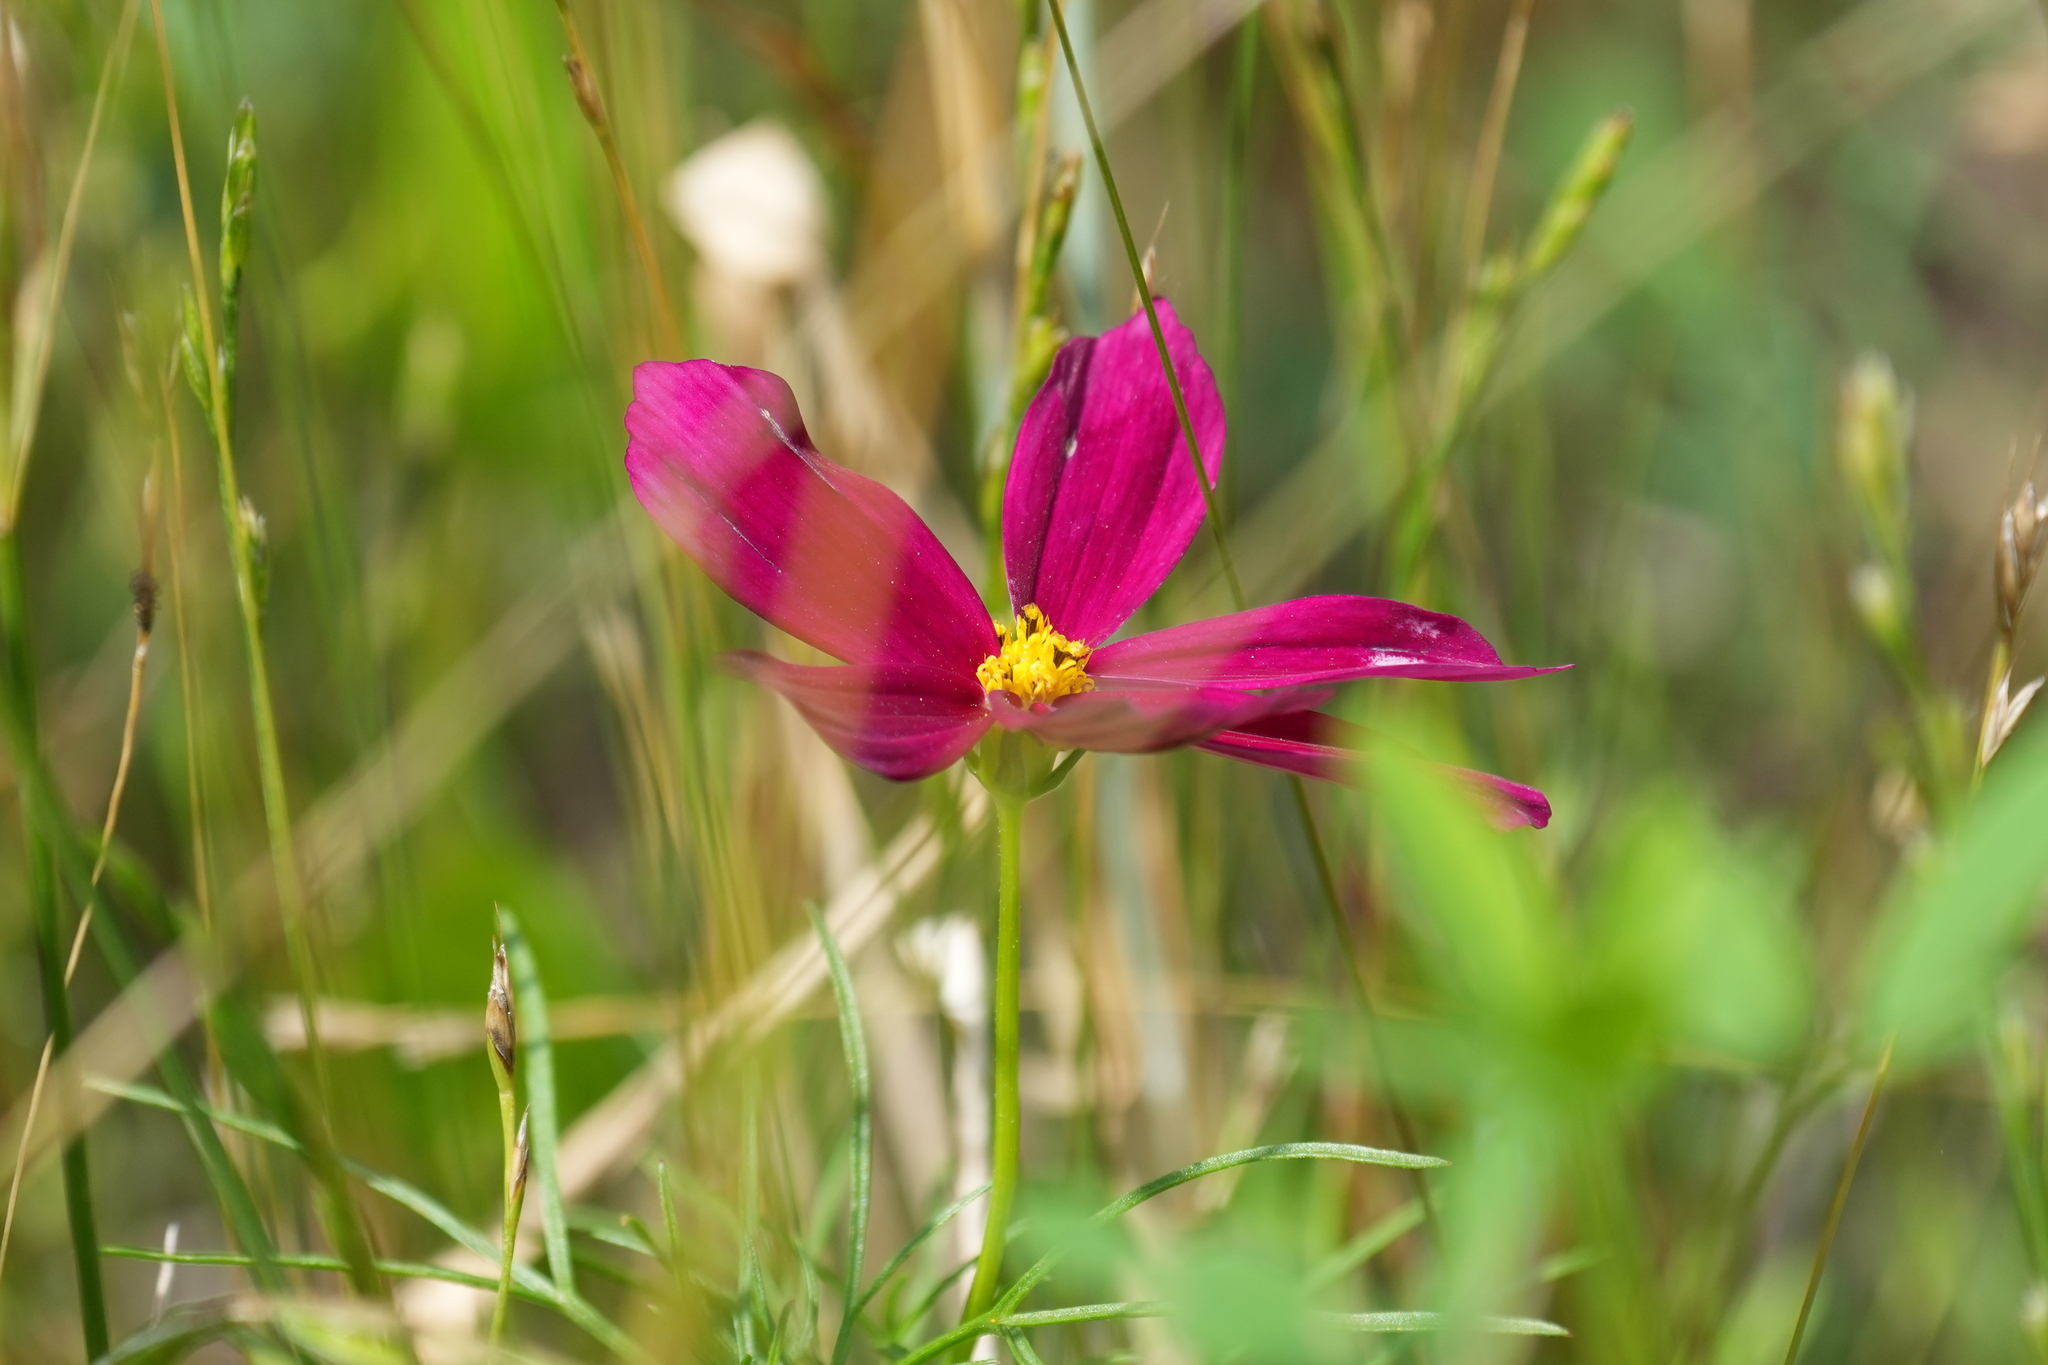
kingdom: Plantae
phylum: Tracheophyta
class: Magnoliopsida
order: Asterales
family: Asteraceae
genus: Cosmos
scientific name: Cosmos bipinnatus
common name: Garden cosmos
